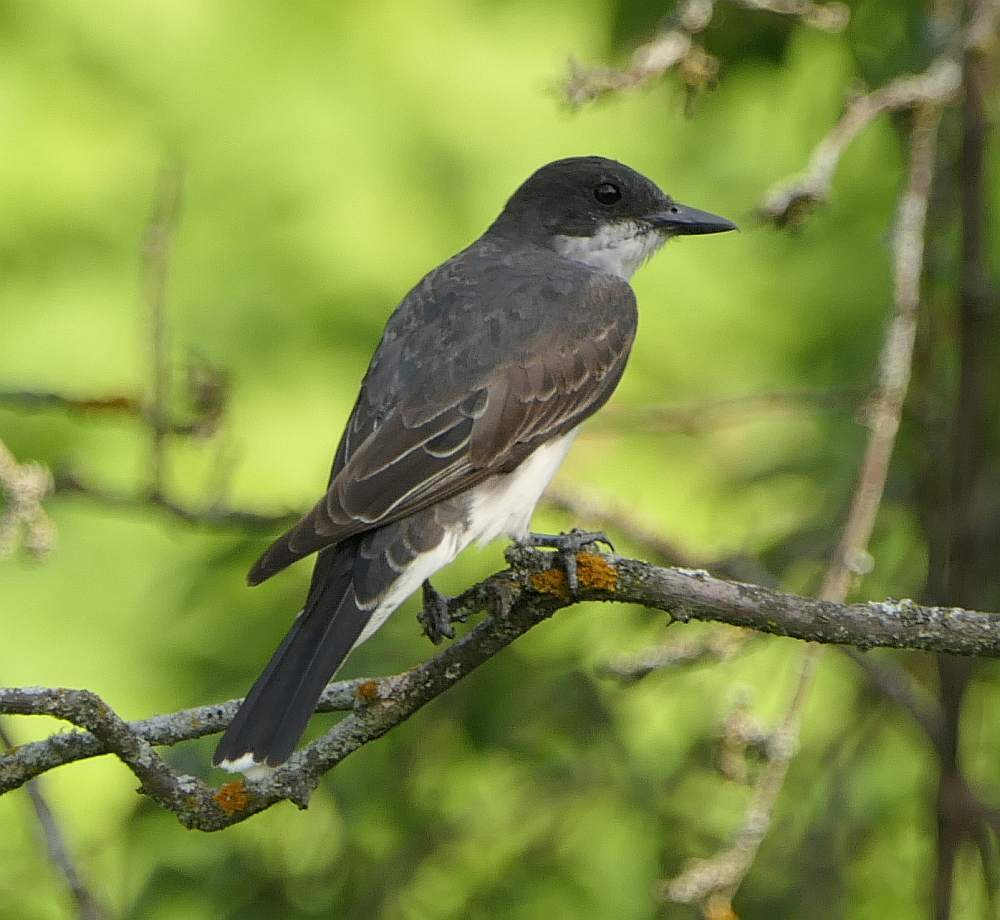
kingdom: Animalia
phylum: Chordata
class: Aves
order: Passeriformes
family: Tyrannidae
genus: Tyrannus
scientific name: Tyrannus tyrannus
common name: Eastern kingbird
